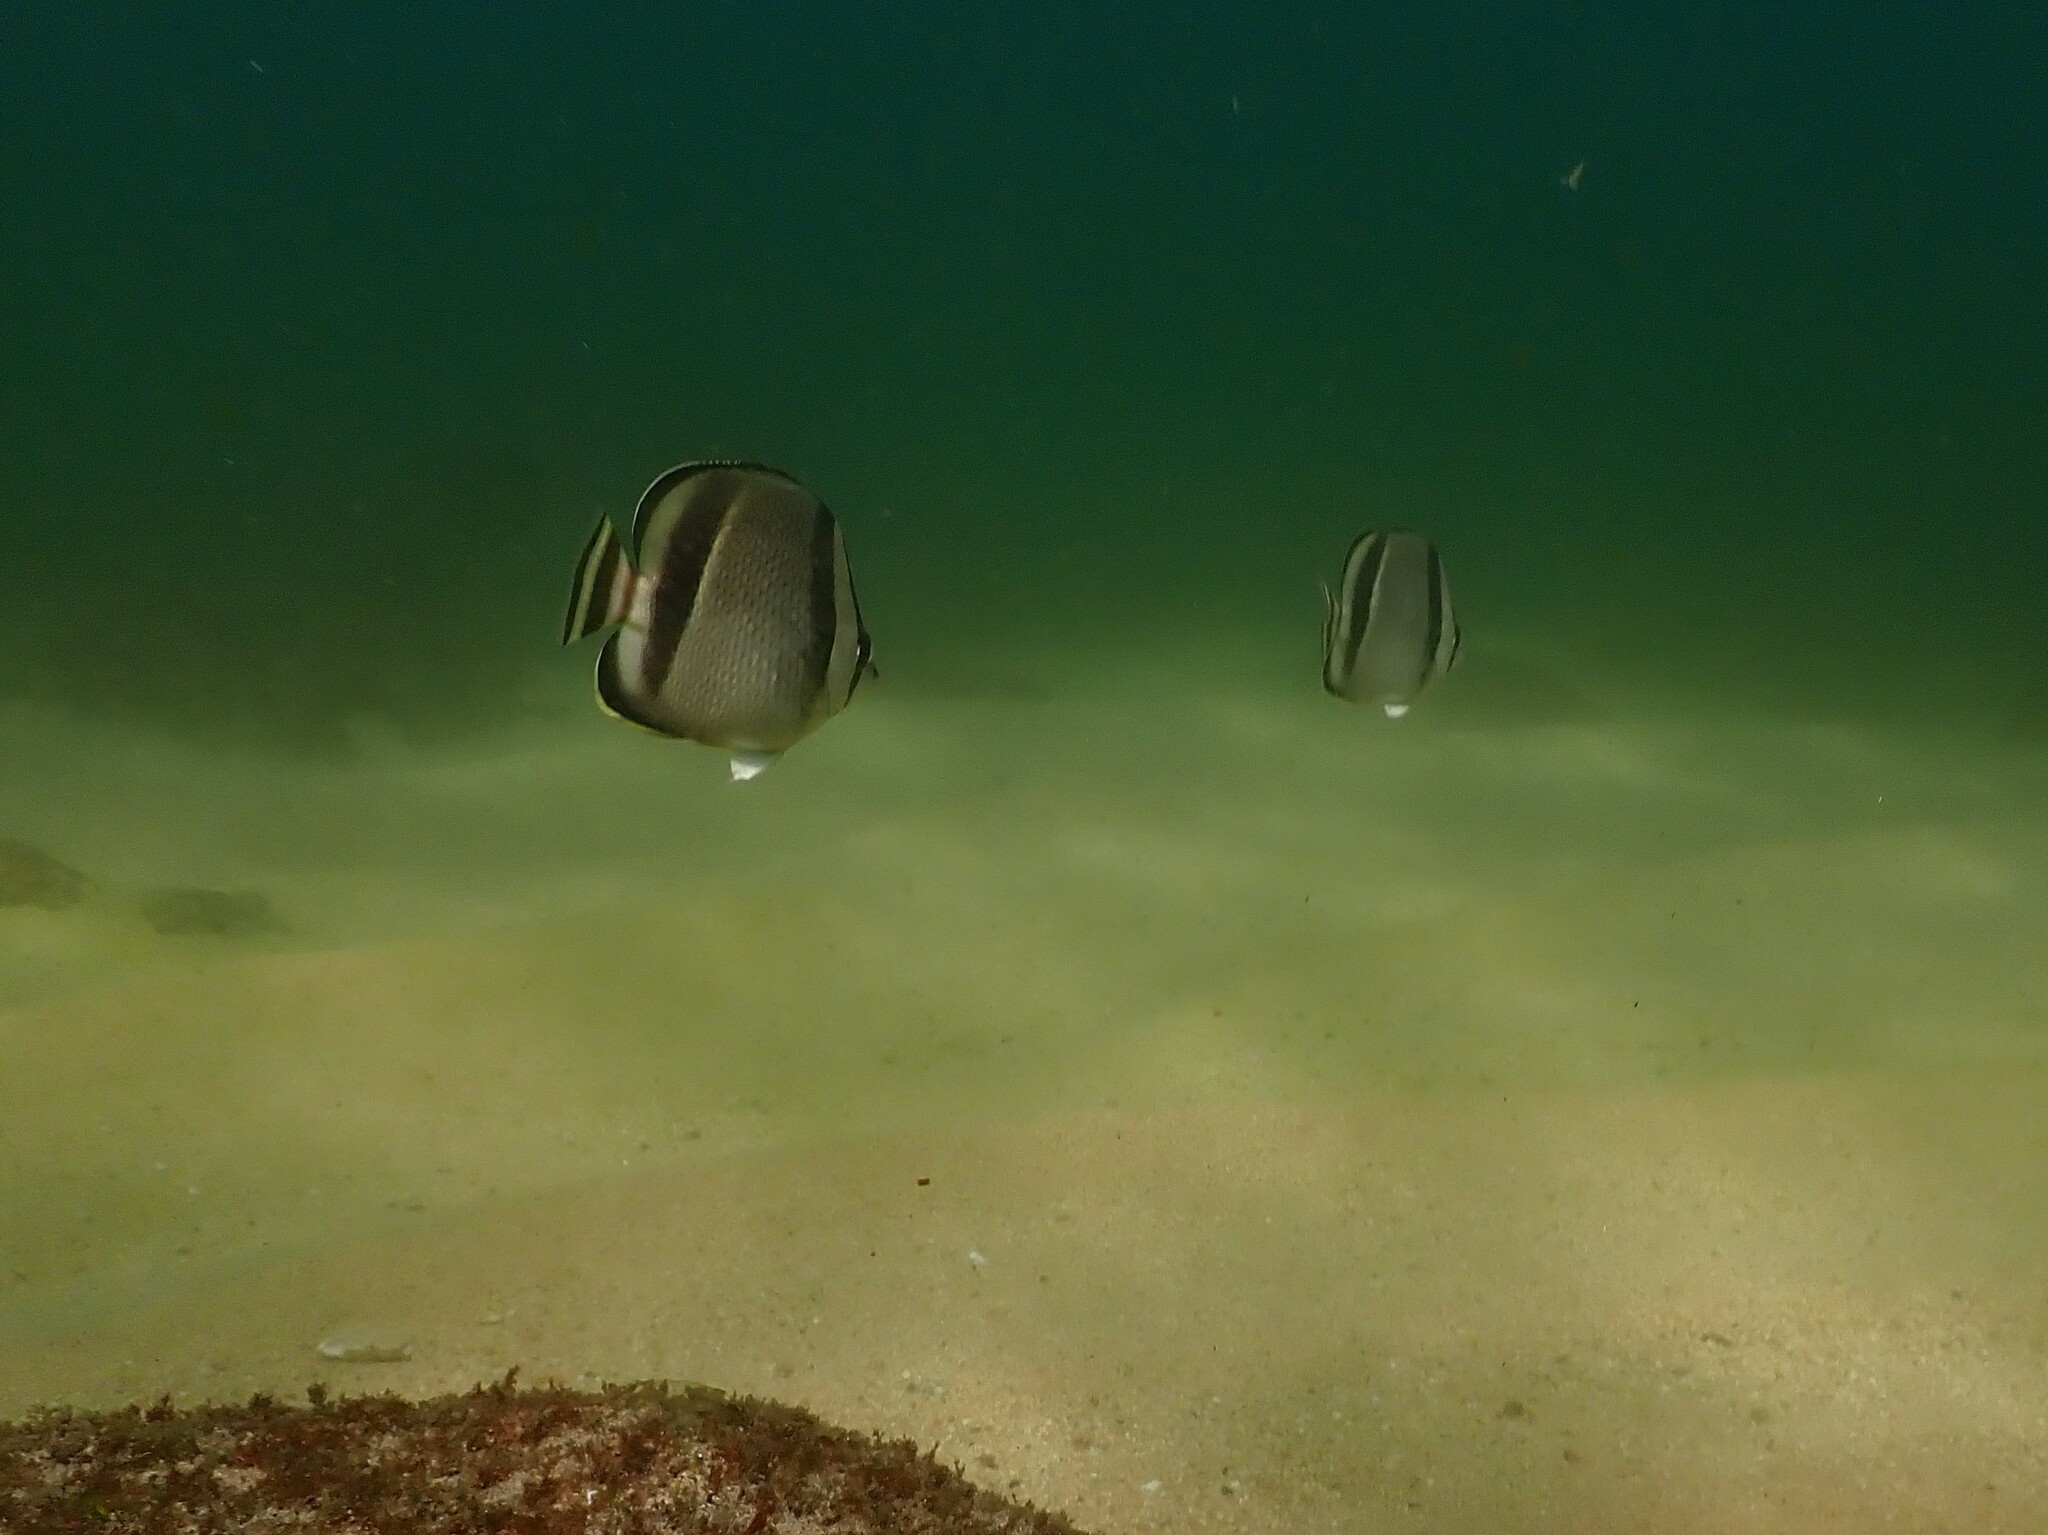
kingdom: Animalia
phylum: Chordata
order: Perciformes
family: Chaetodontidae
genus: Chaetodon
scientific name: Chaetodon humeralis
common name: Threebanded butterflyfish
